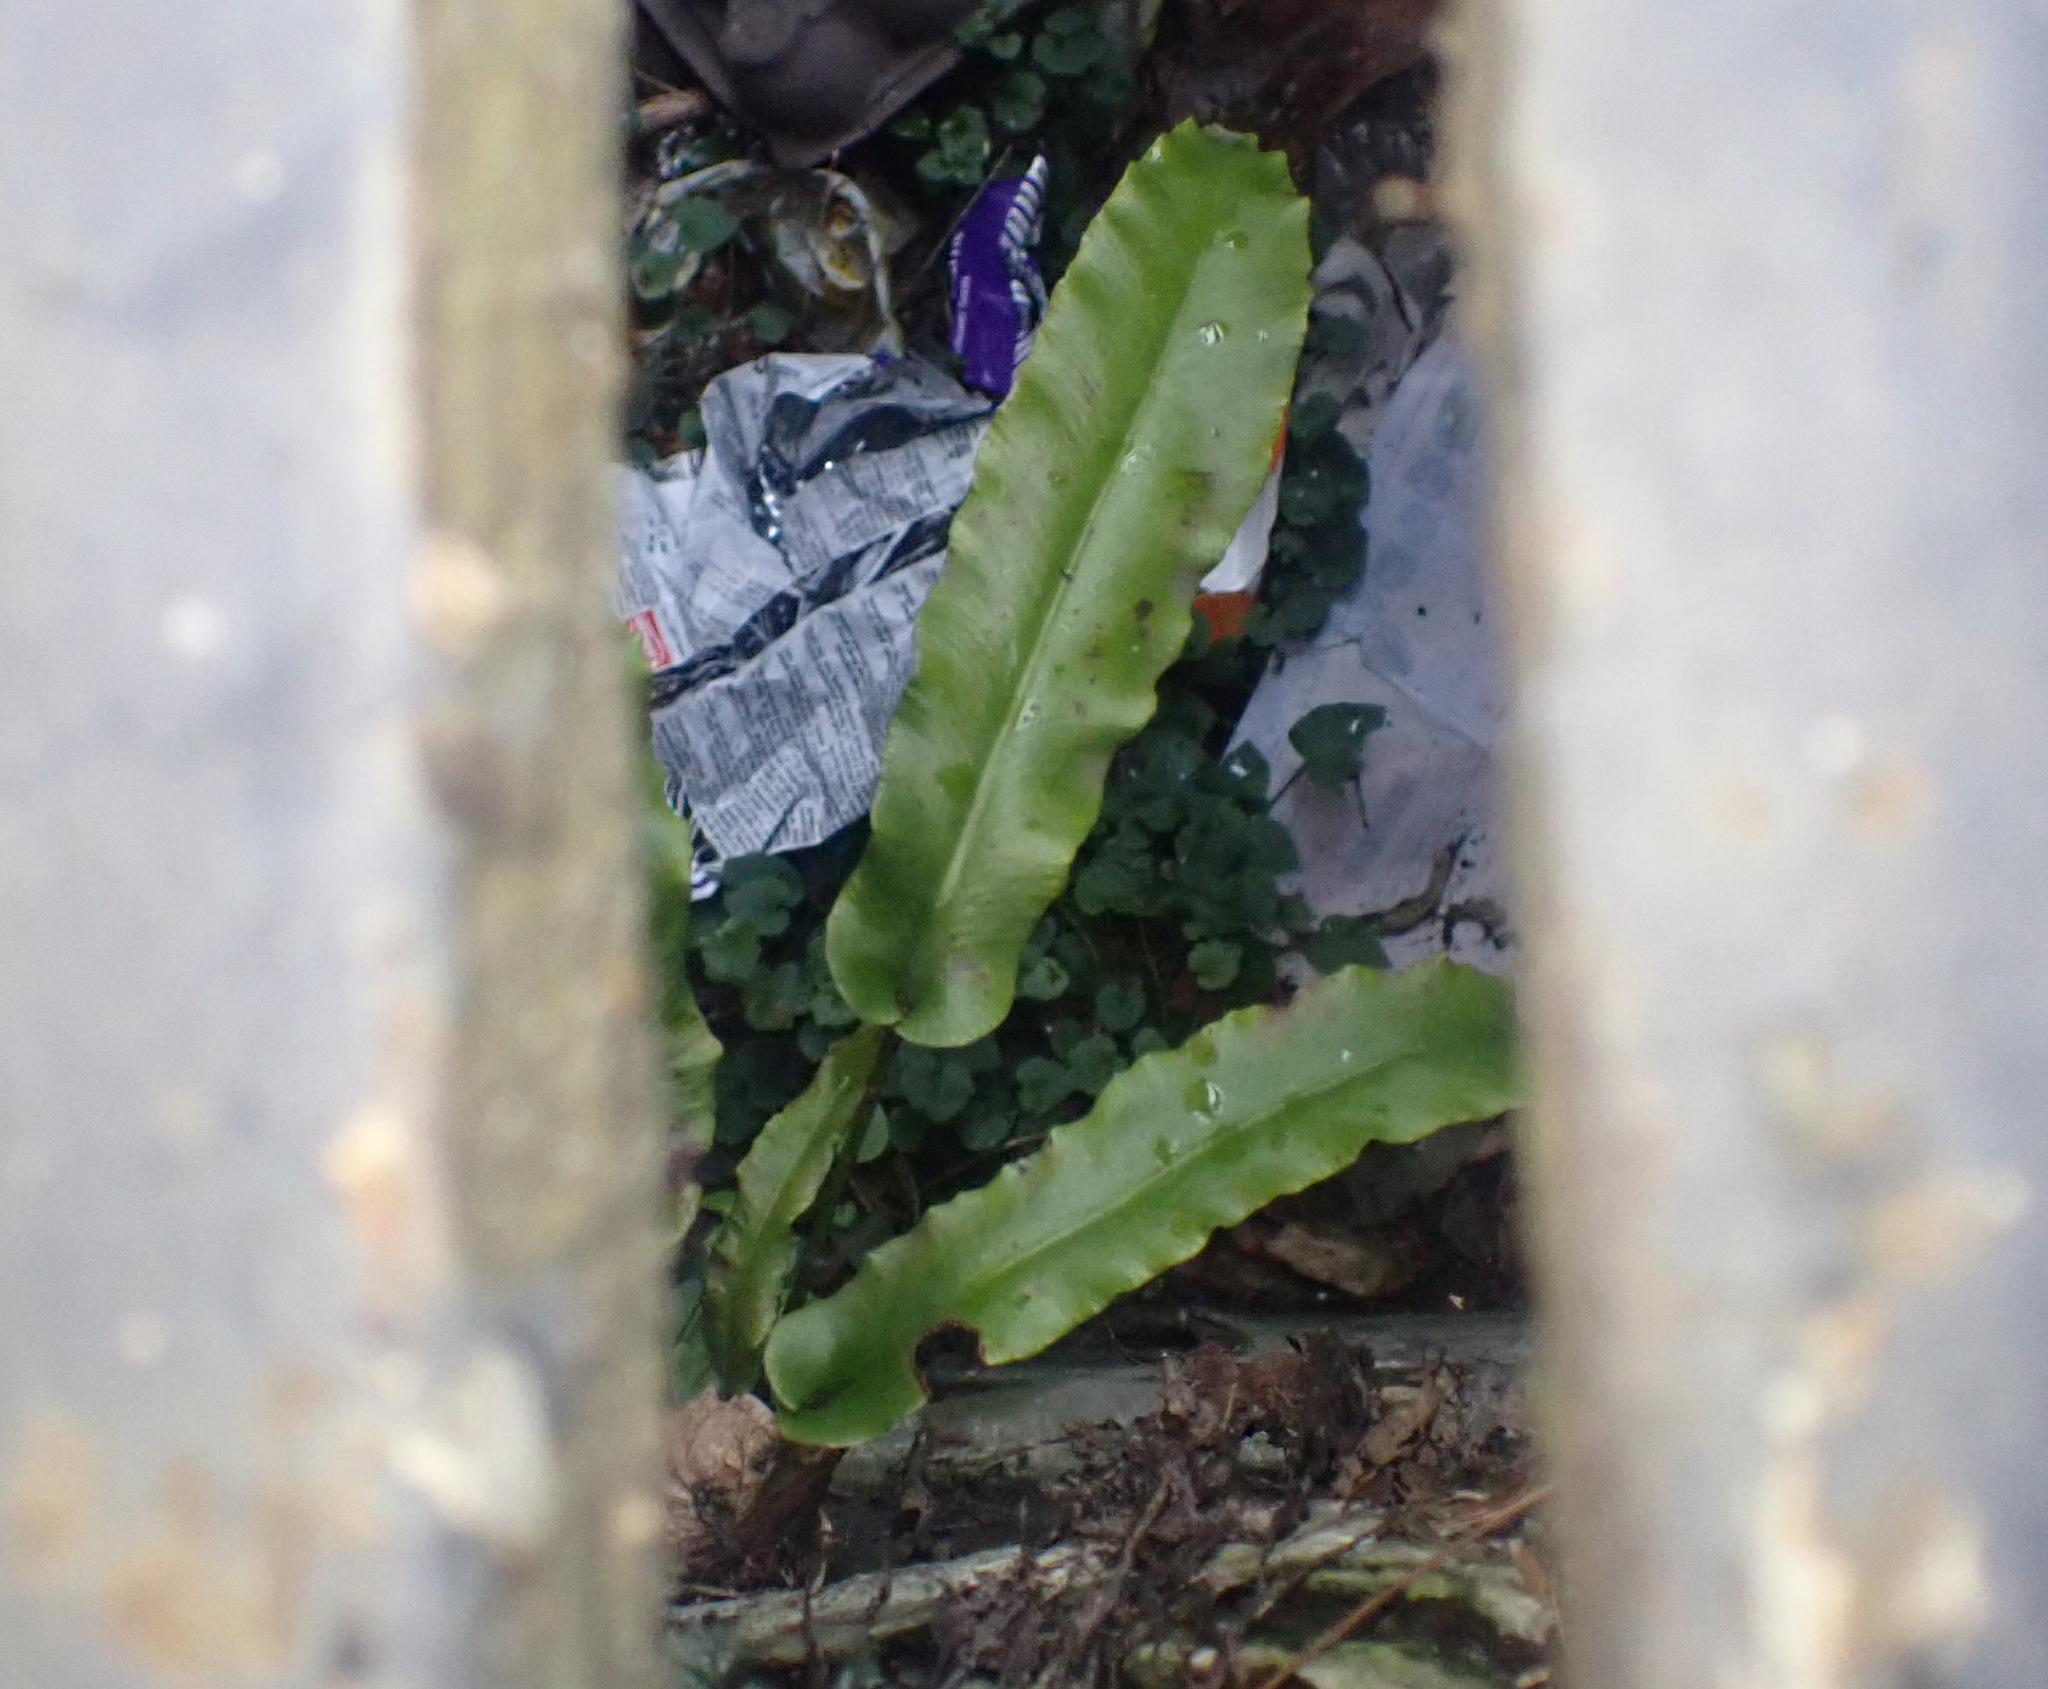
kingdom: Plantae
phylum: Tracheophyta
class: Polypodiopsida
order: Polypodiales
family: Aspleniaceae
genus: Asplenium
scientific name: Asplenium scolopendrium
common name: Hart's-tongue fern
